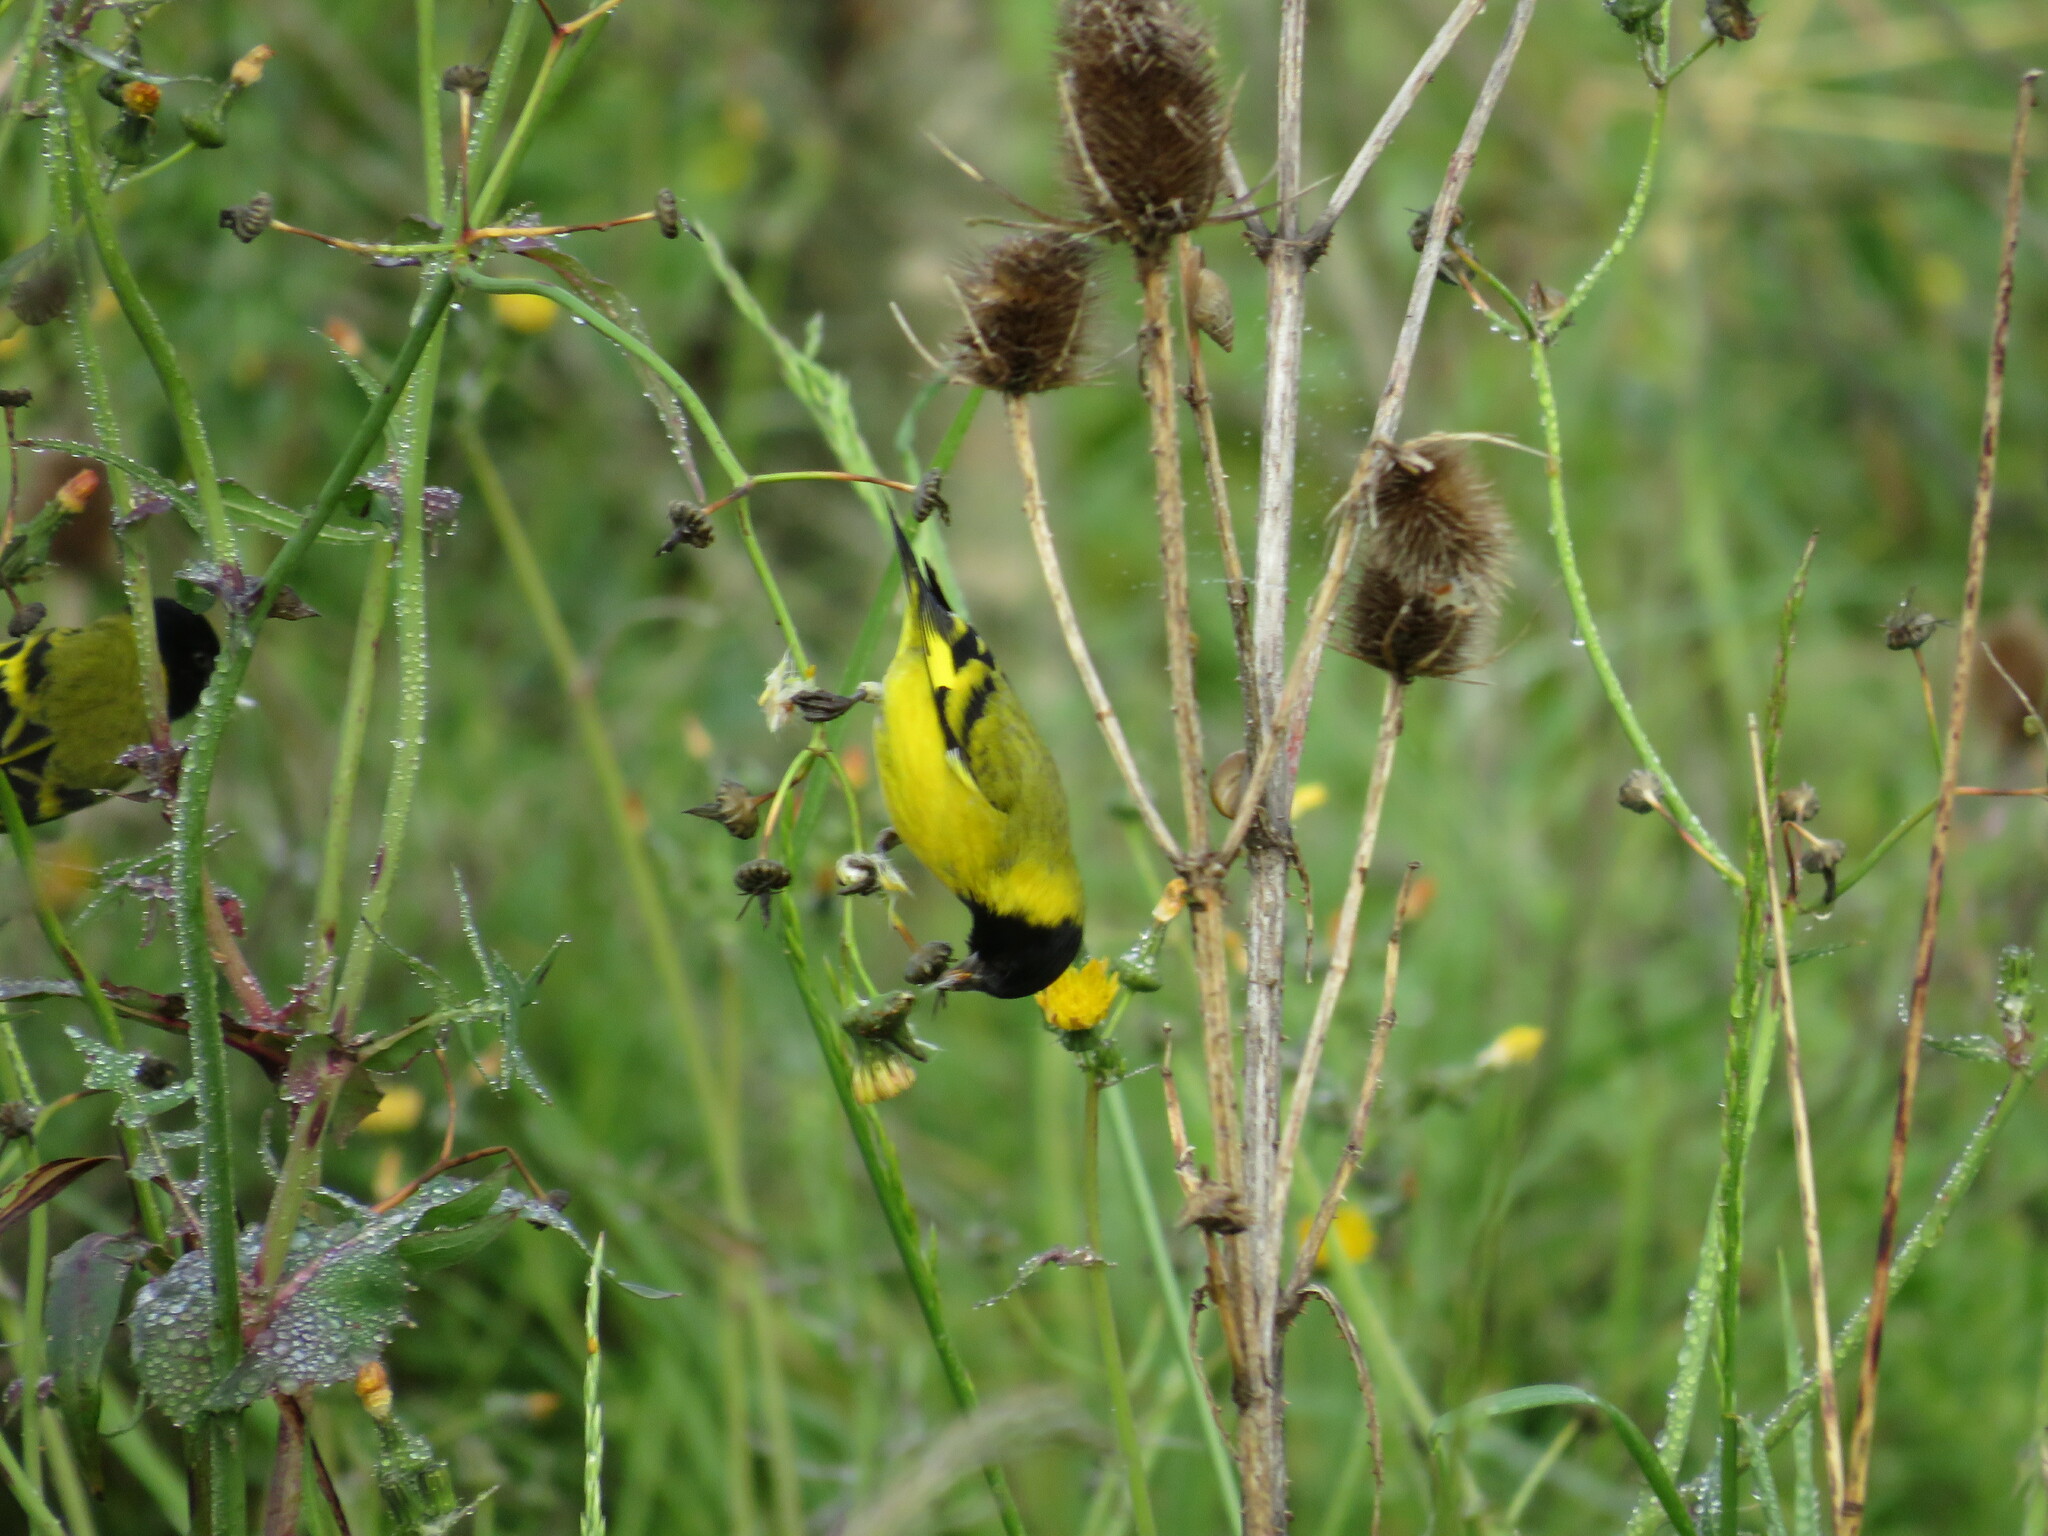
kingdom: Animalia
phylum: Chordata
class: Aves
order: Passeriformes
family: Fringillidae
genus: Spinus
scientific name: Spinus magellanicus
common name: Hooded siskin
